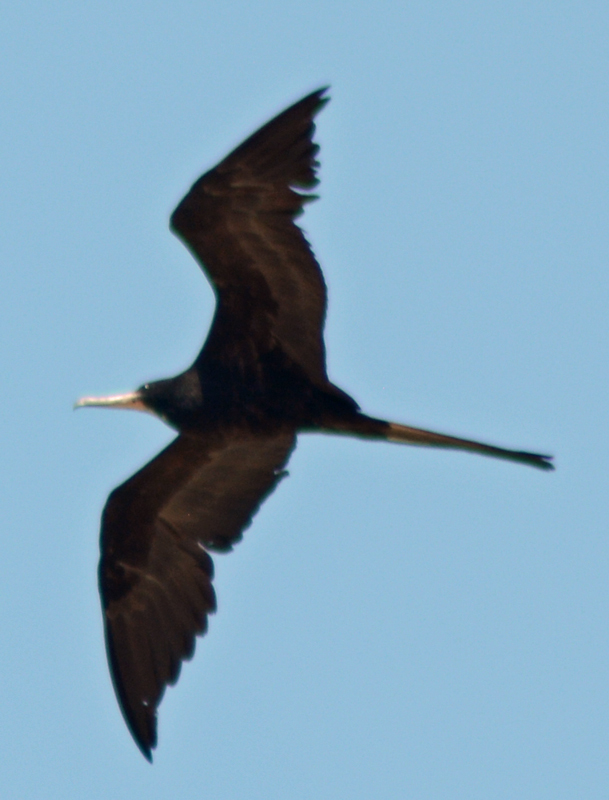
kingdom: Animalia
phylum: Chordata
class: Aves
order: Suliformes
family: Fregatidae
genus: Fregata
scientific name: Fregata magnificens
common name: Magnificent frigatebird
